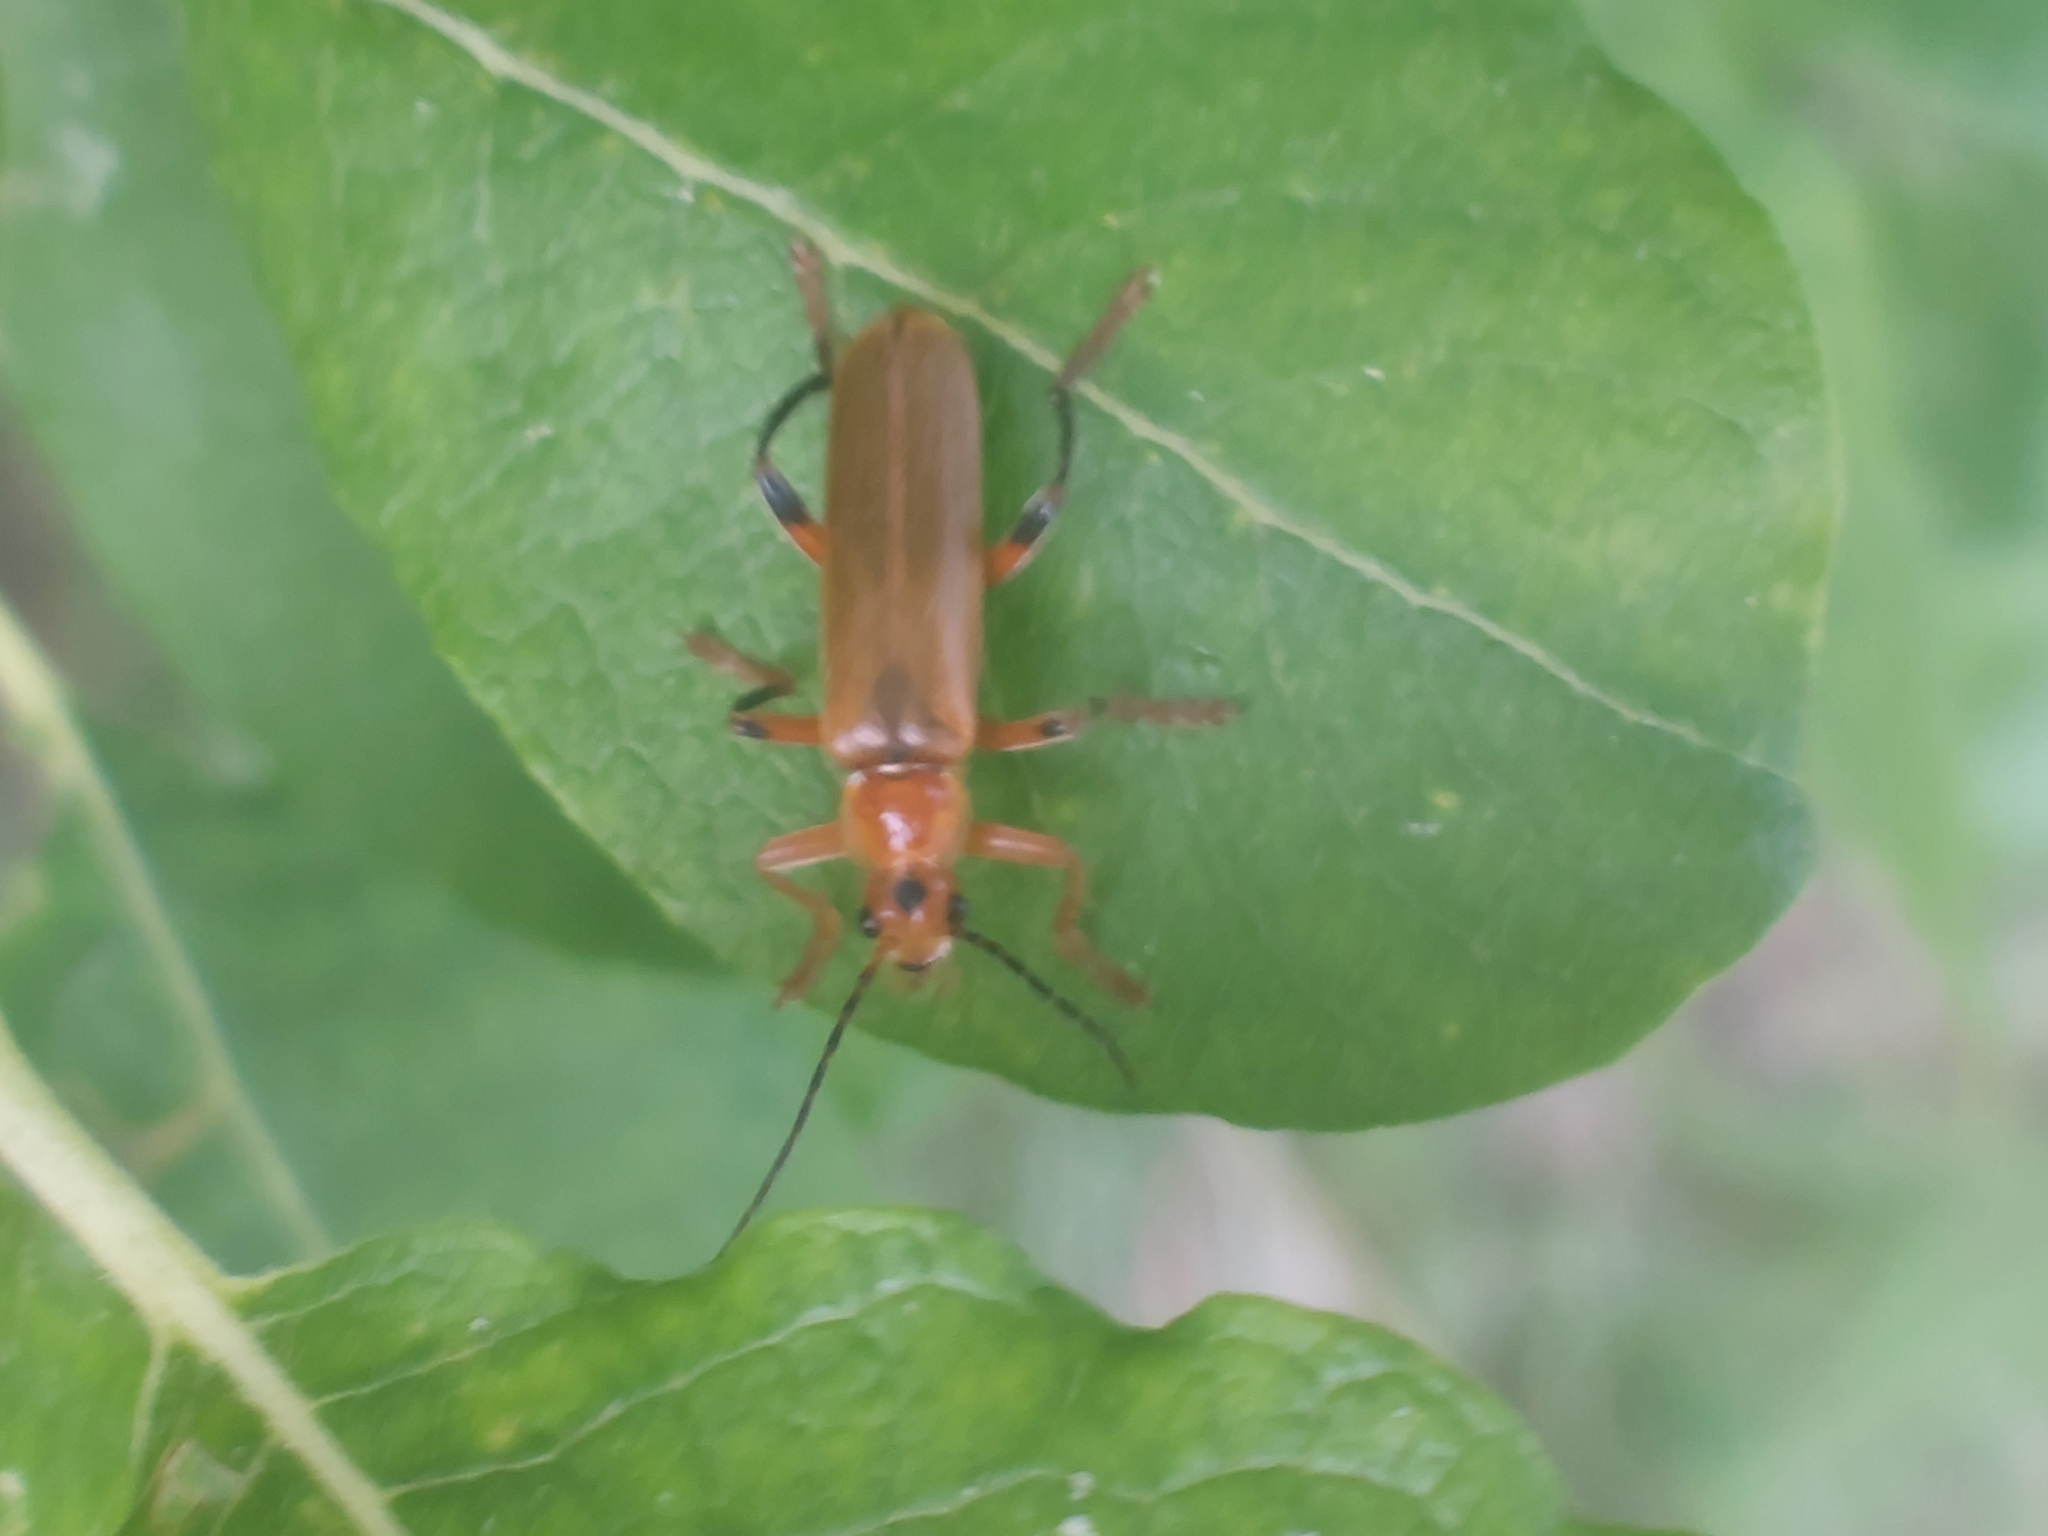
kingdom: Animalia
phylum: Arthropoda
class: Insecta
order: Coleoptera
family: Cantharidae
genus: Cantharis
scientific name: Cantharis livida
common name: Livid soldier beetle
